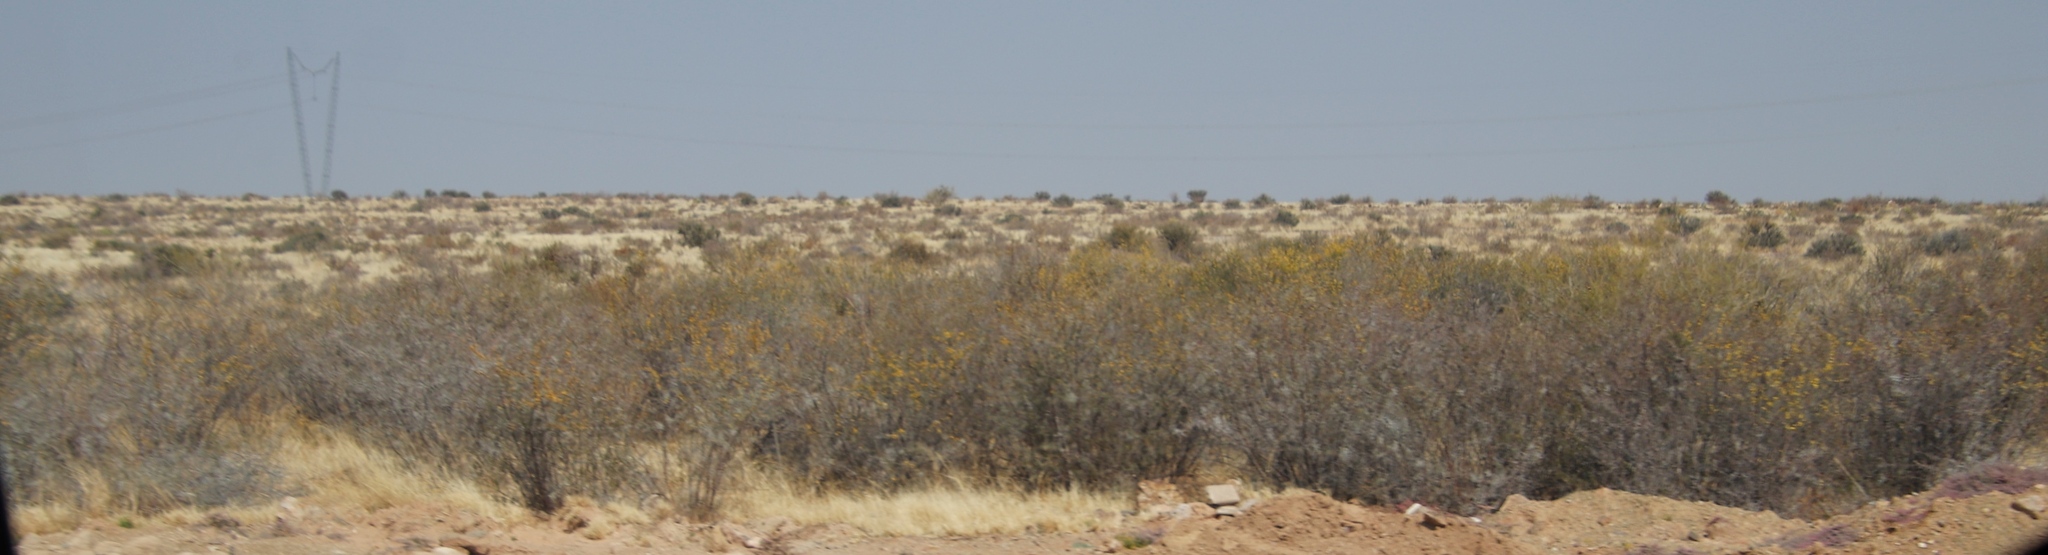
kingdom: Plantae
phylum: Tracheophyta
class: Magnoliopsida
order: Fabales
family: Fabaceae
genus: Vachellia
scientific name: Vachellia nebrownii
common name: Water acacia
